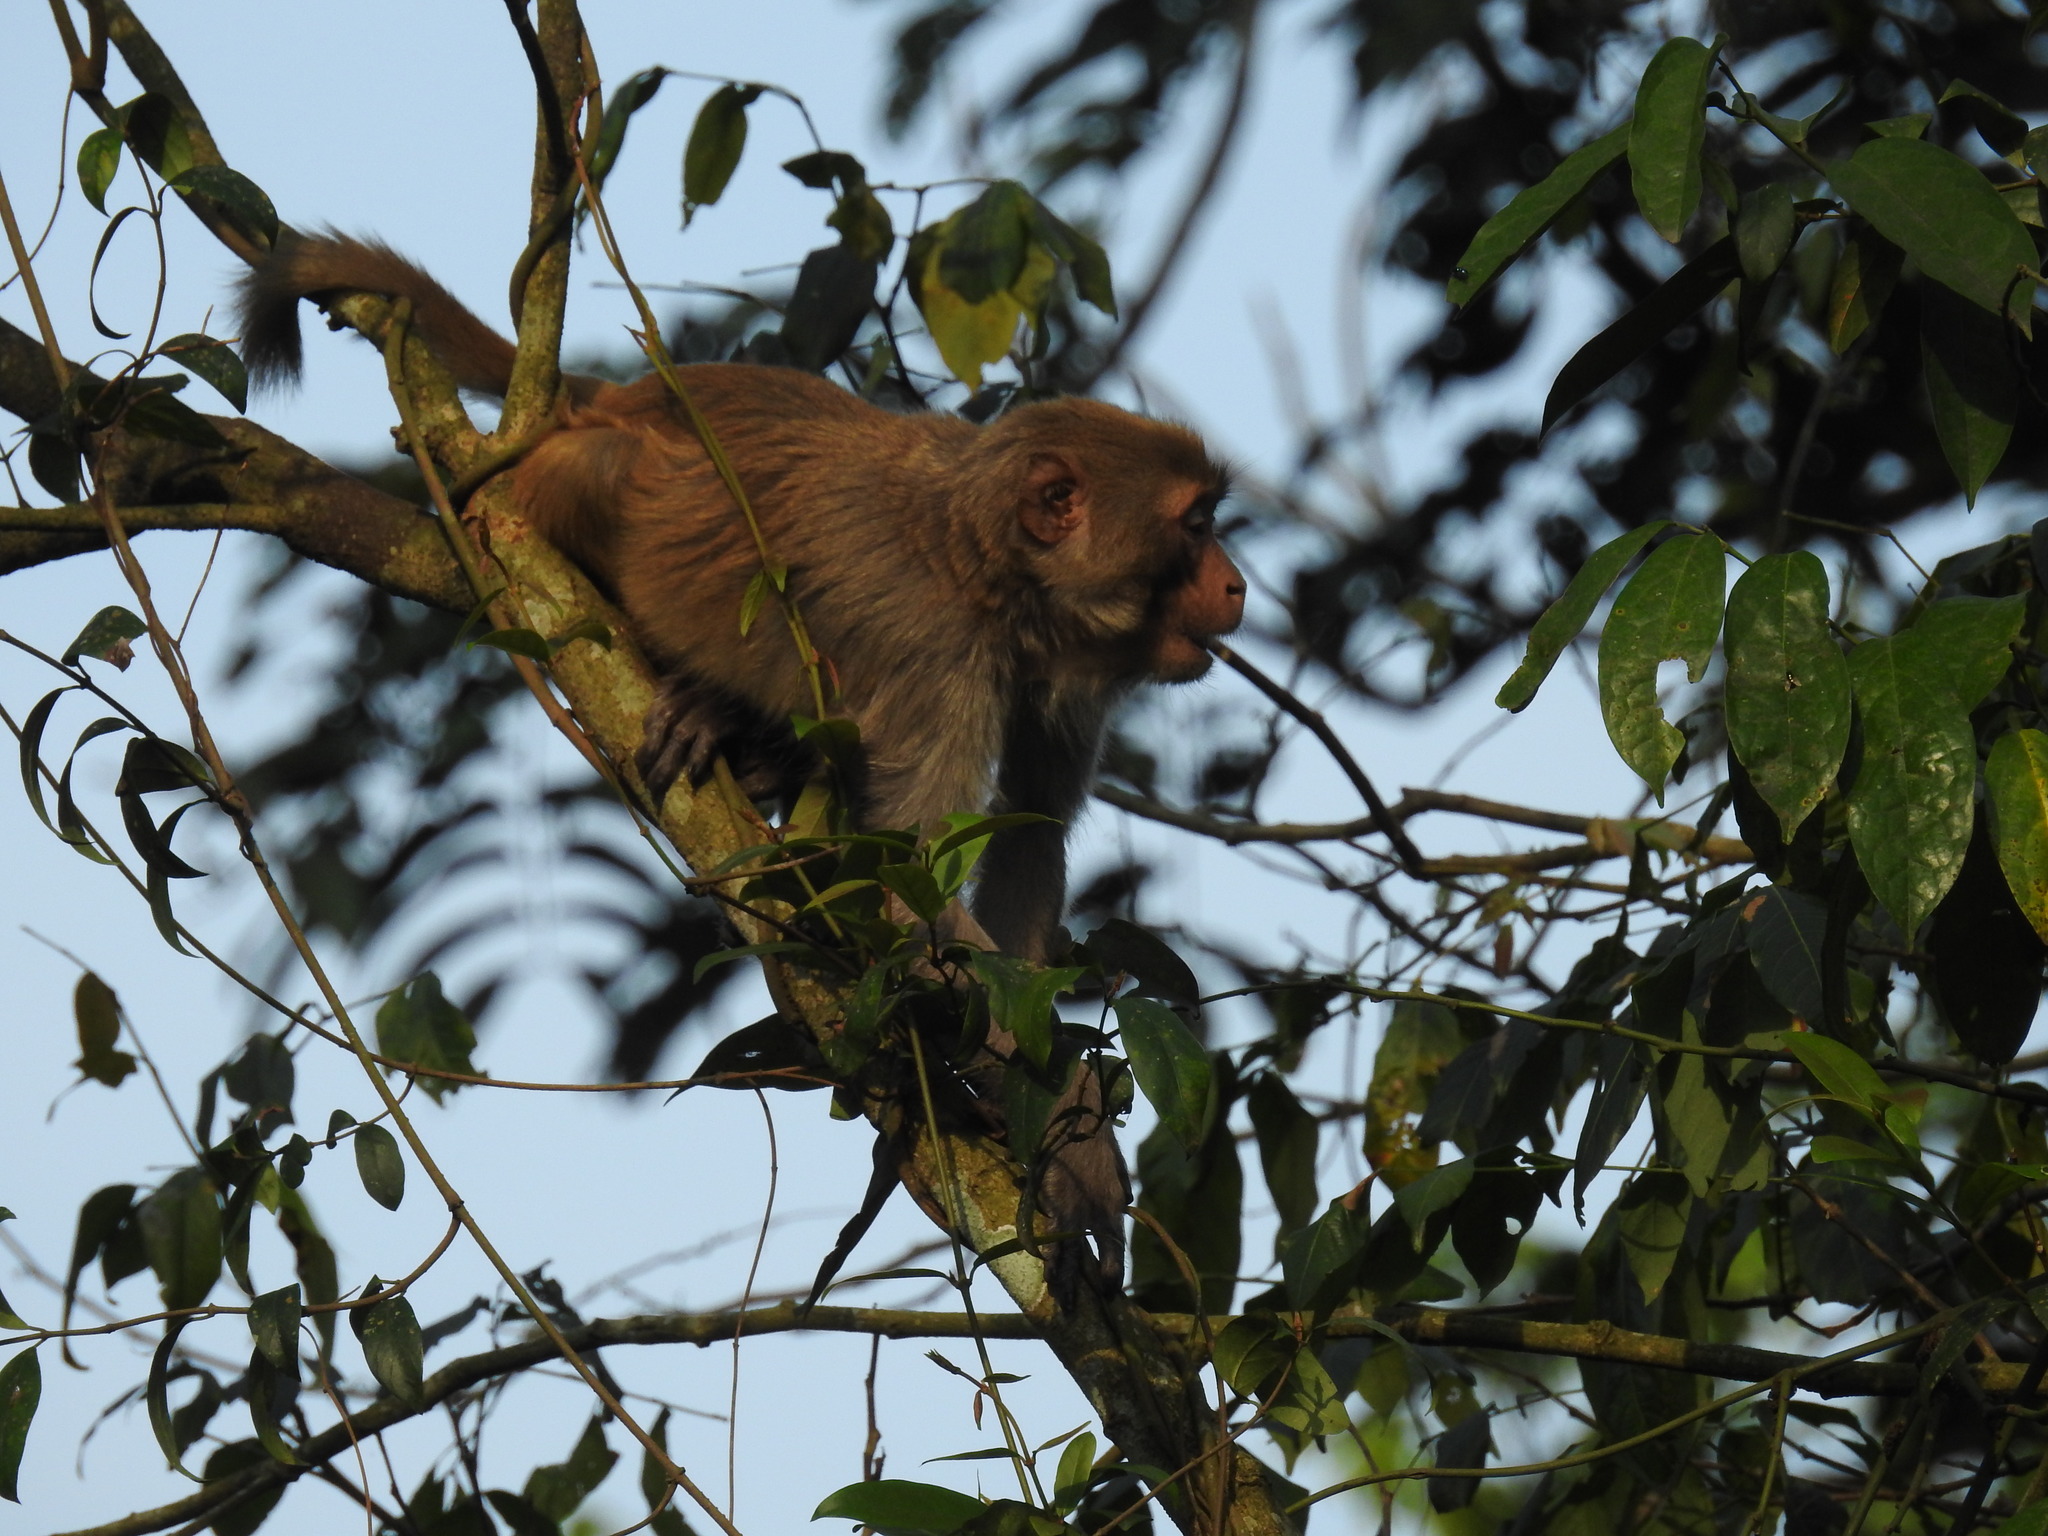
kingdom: Animalia
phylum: Chordata
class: Mammalia
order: Primates
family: Cercopithecidae
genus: Macaca
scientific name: Macaca mulatta
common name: Rhesus monkey
